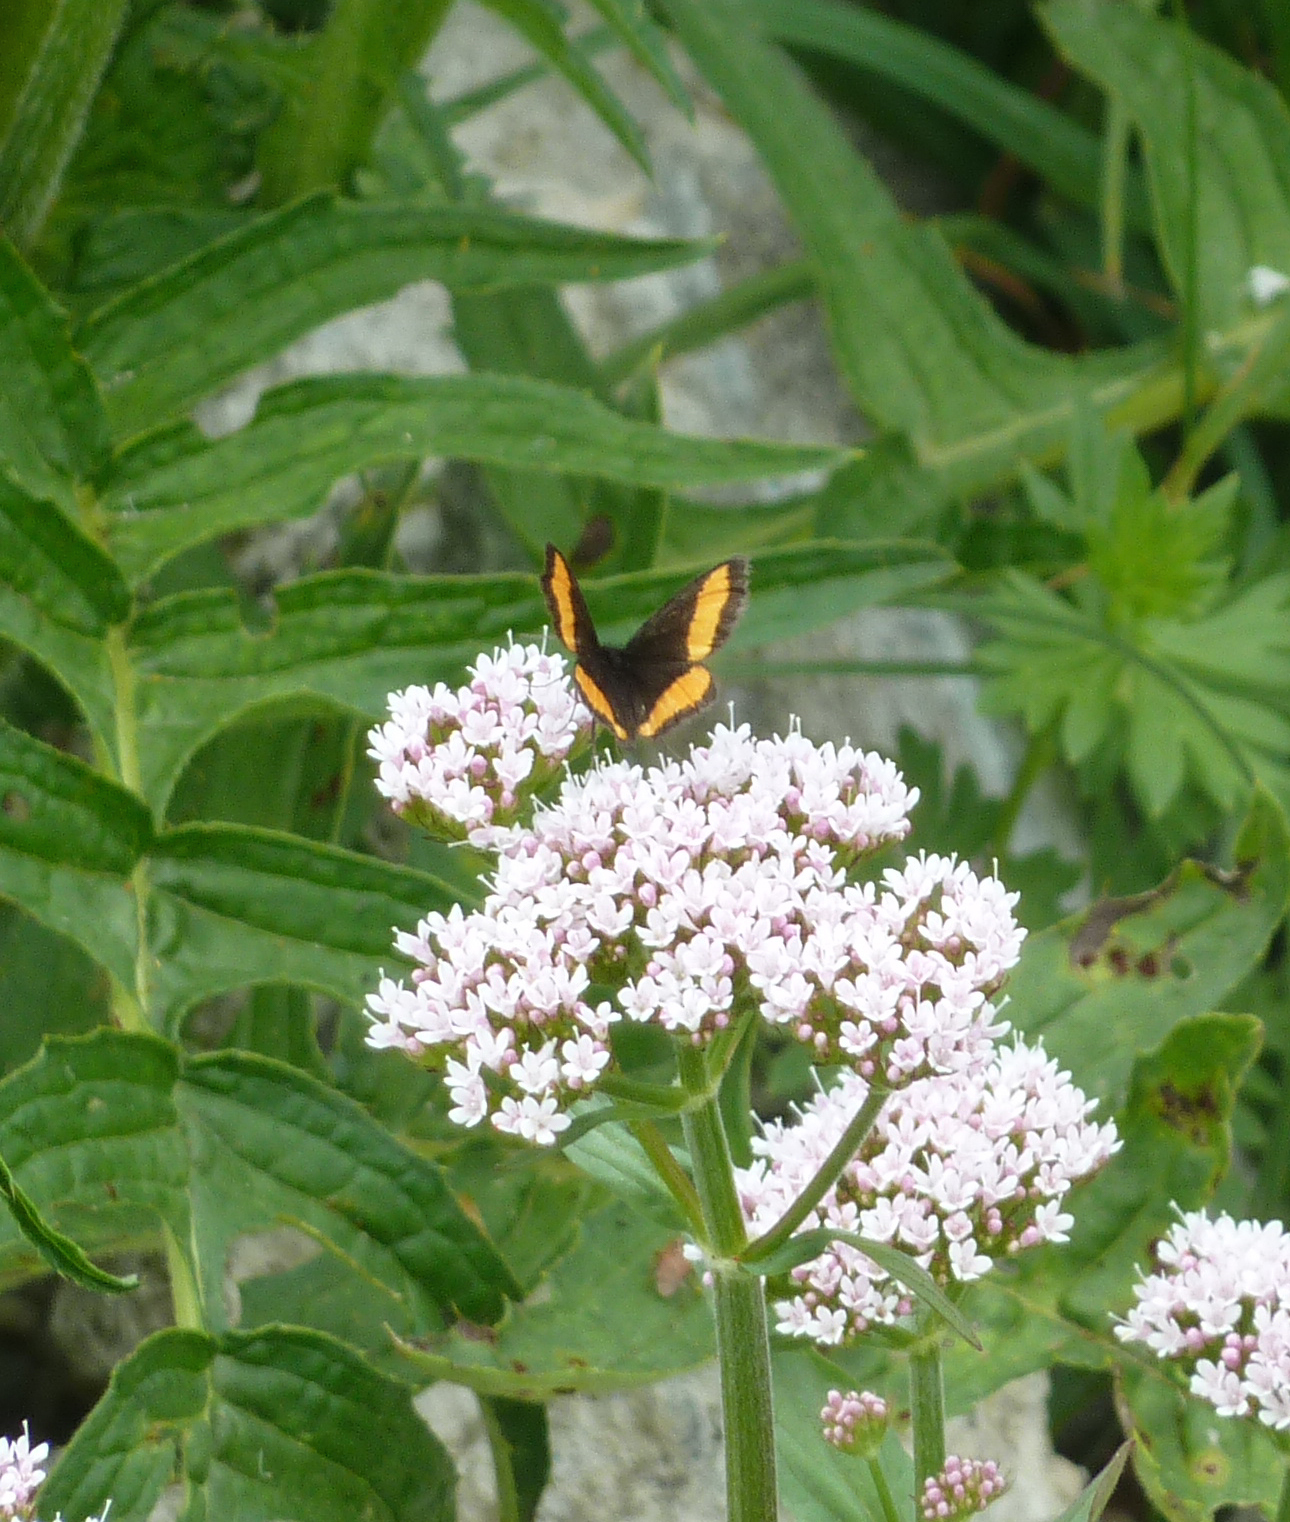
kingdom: Animalia
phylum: Arthropoda
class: Insecta
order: Lepidoptera
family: Geometridae
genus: Psodos
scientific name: Psodos quadrifaria
